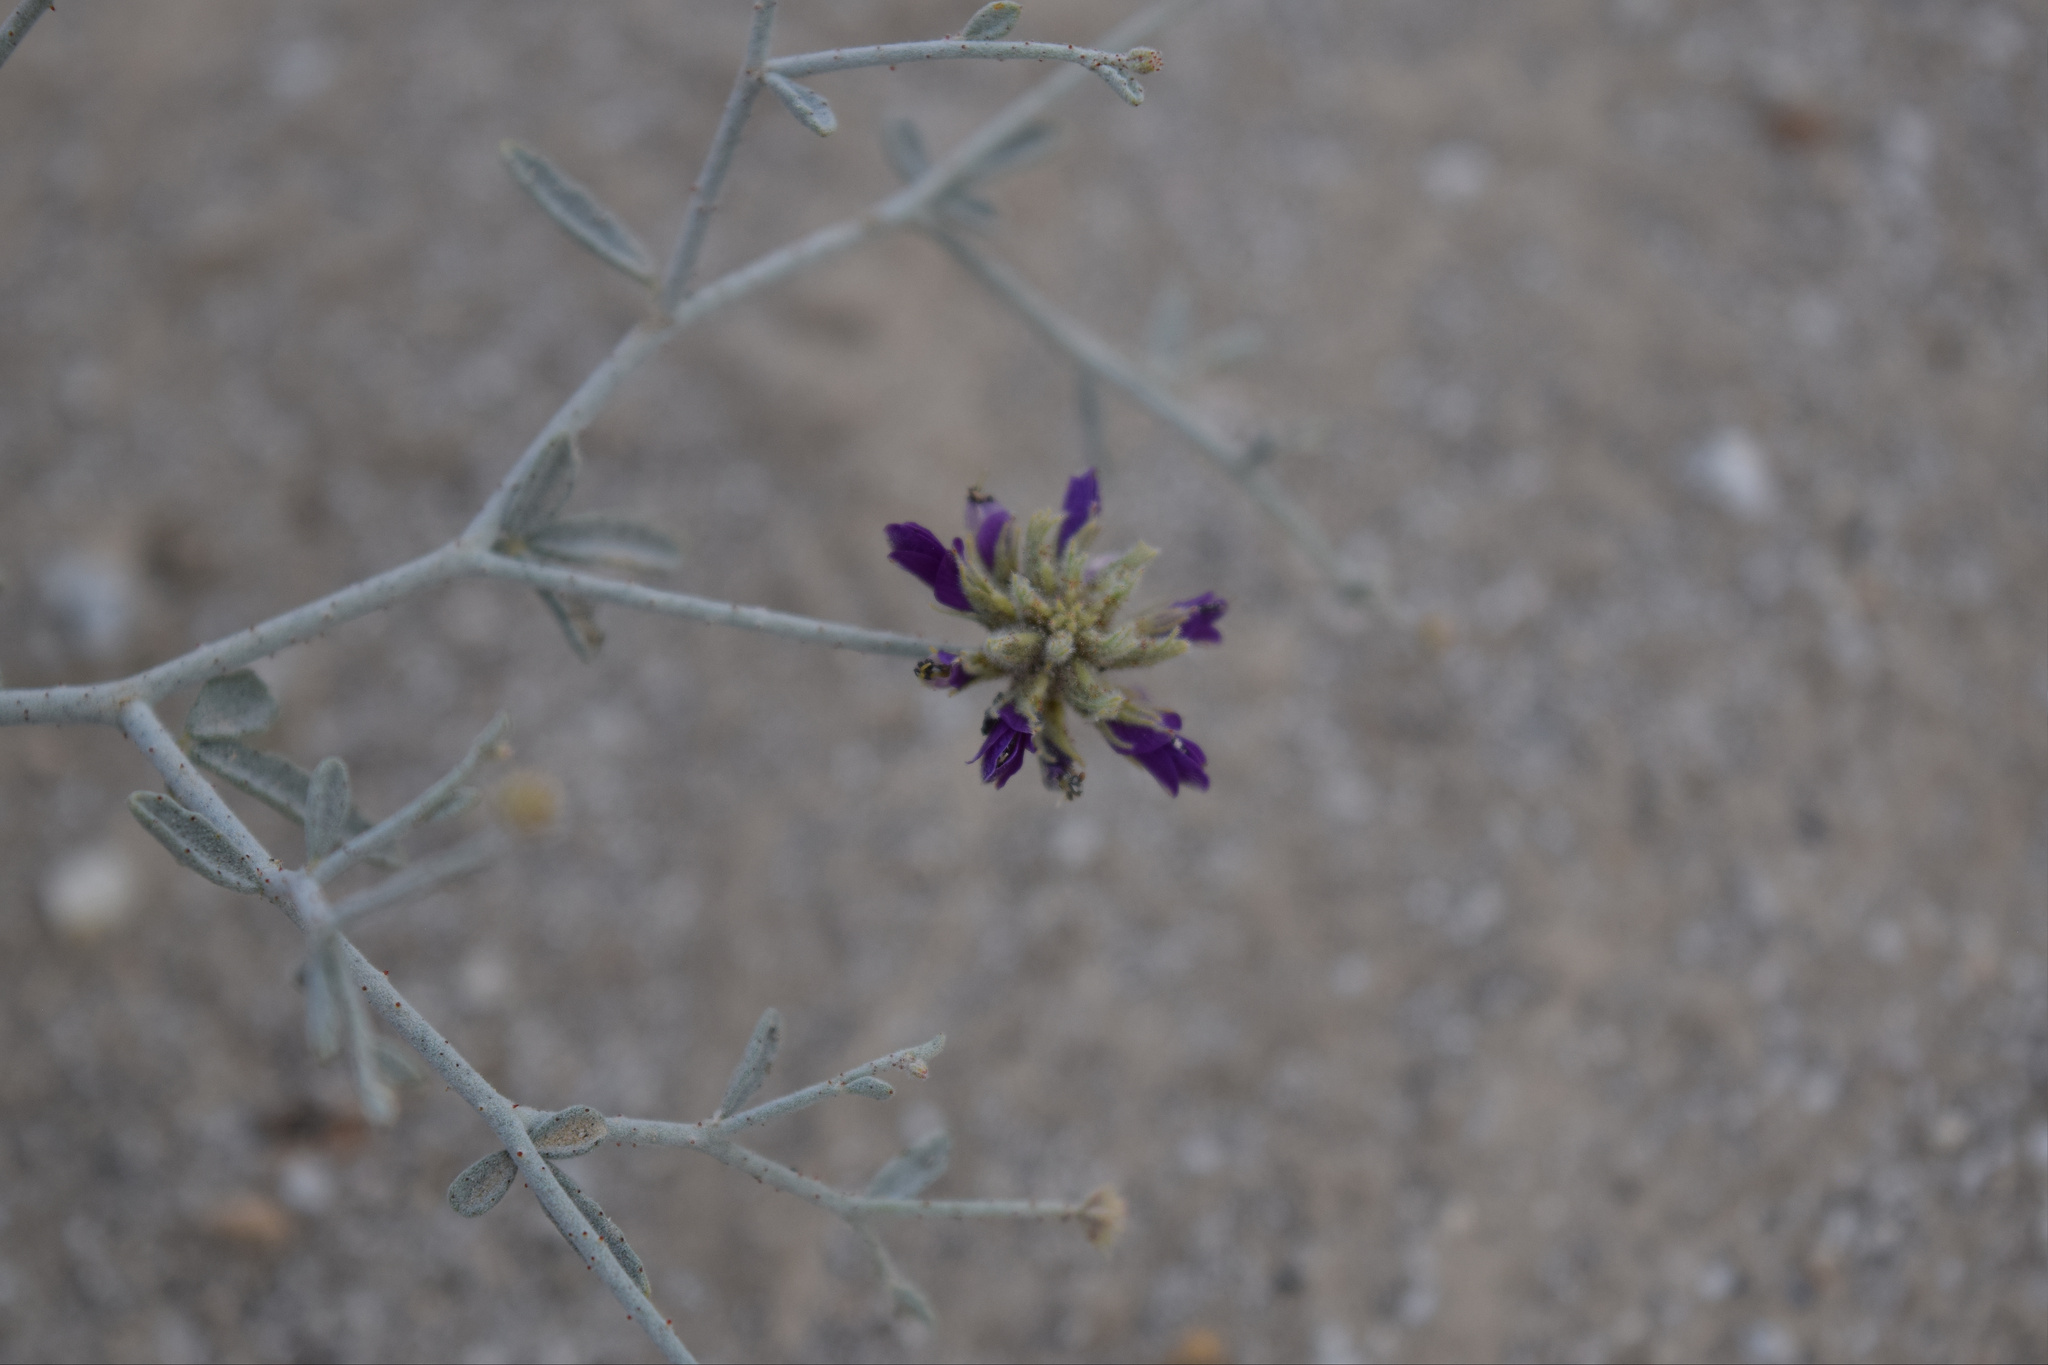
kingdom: Plantae
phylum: Tracheophyta
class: Magnoliopsida
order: Fabales
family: Fabaceae
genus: Psorothamnus
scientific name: Psorothamnus emoryi
